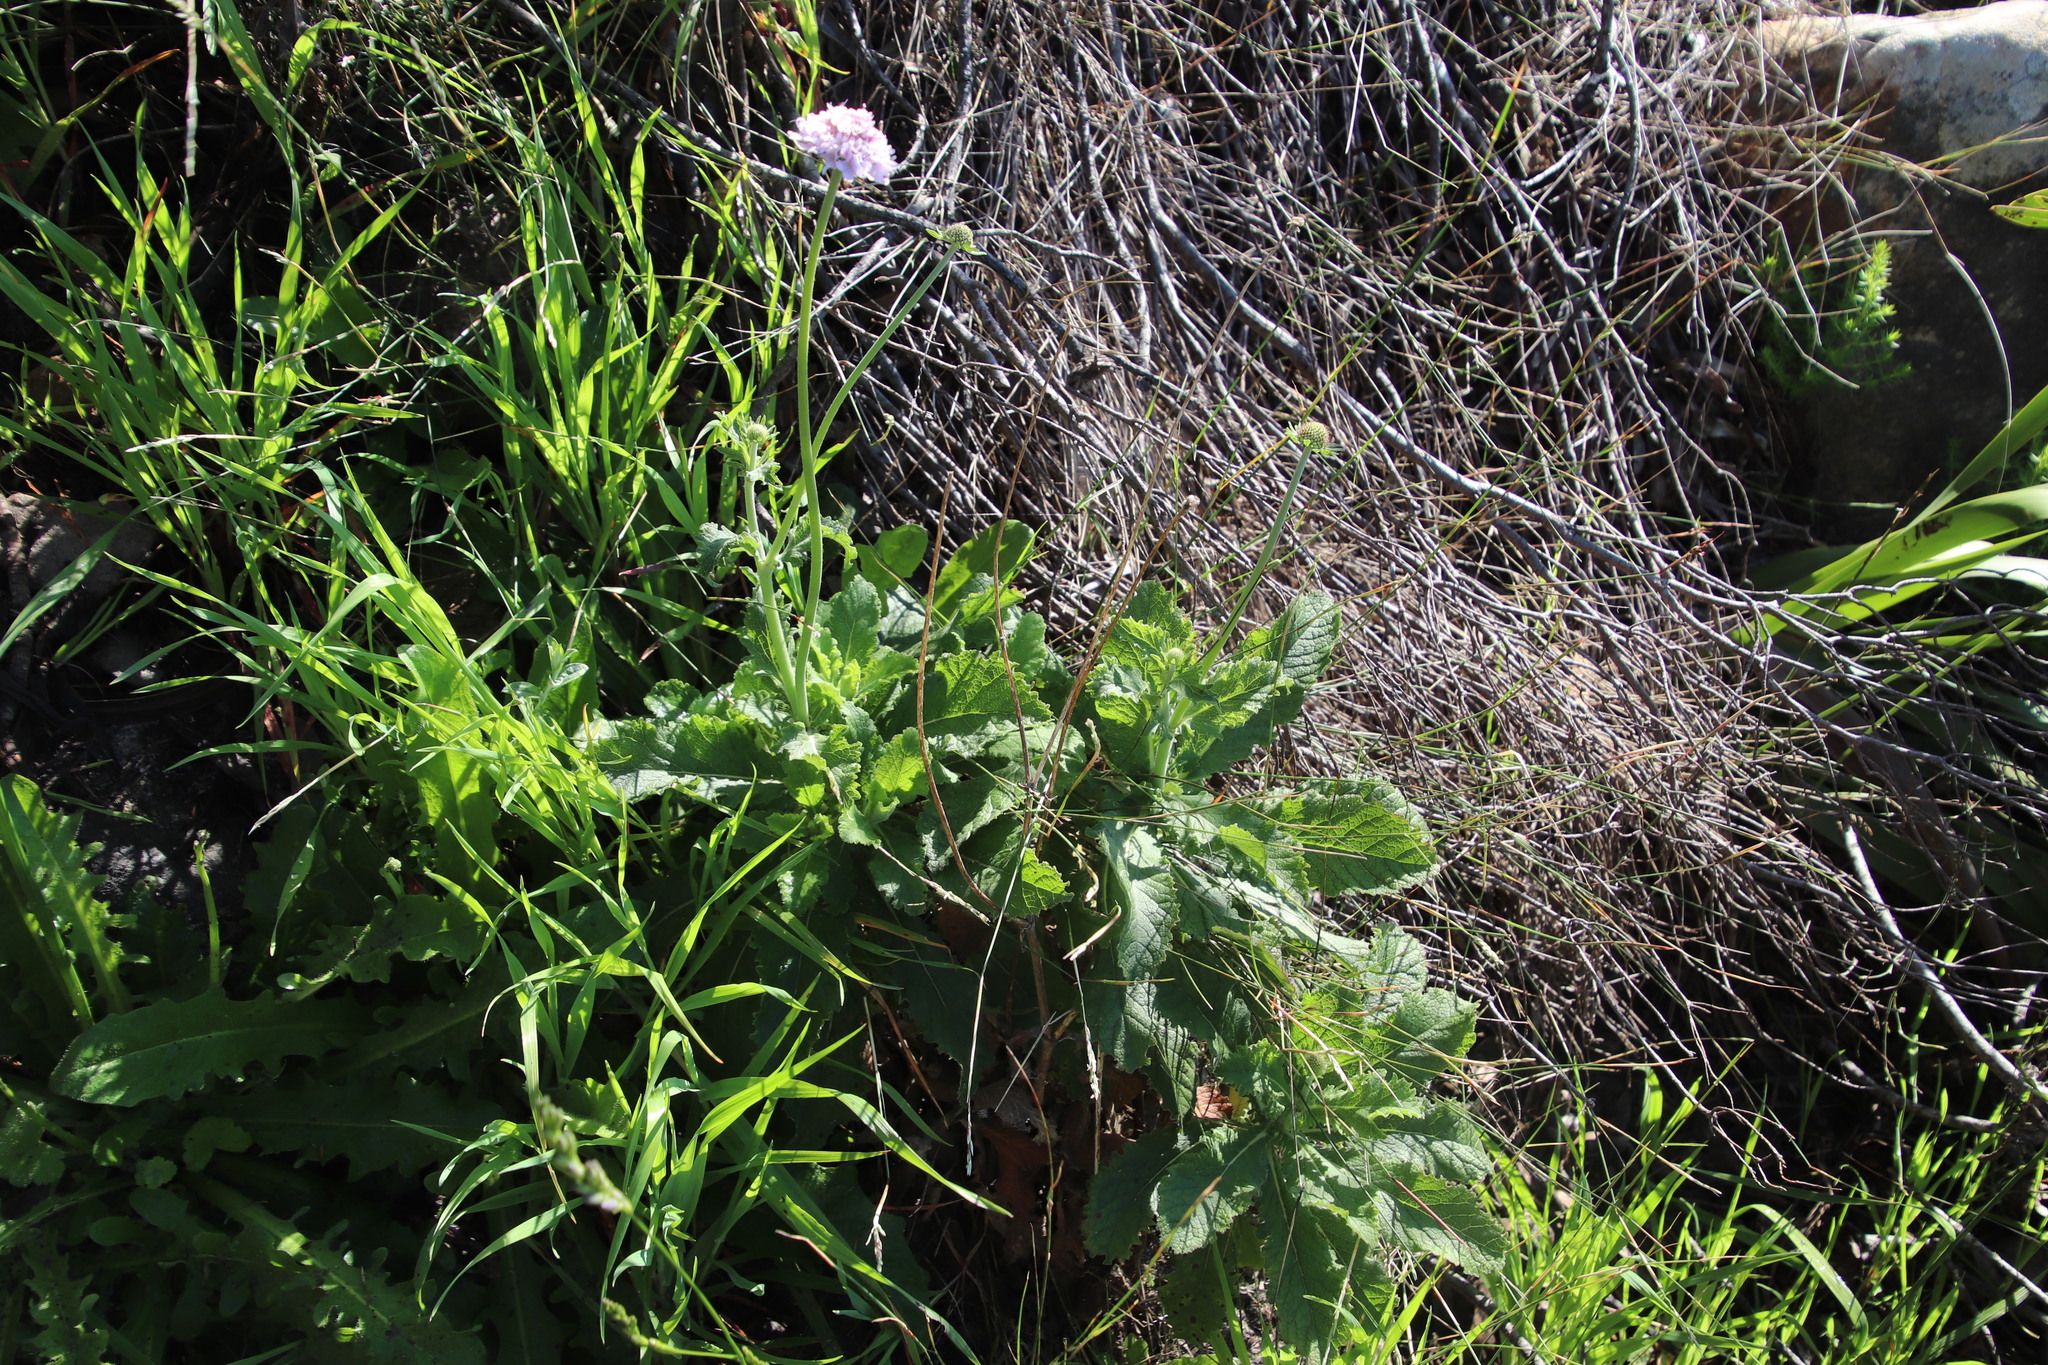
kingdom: Plantae
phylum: Tracheophyta
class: Magnoliopsida
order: Dipsacales
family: Caprifoliaceae
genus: Scabiosa
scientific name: Scabiosa africana
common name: Cape scabious
